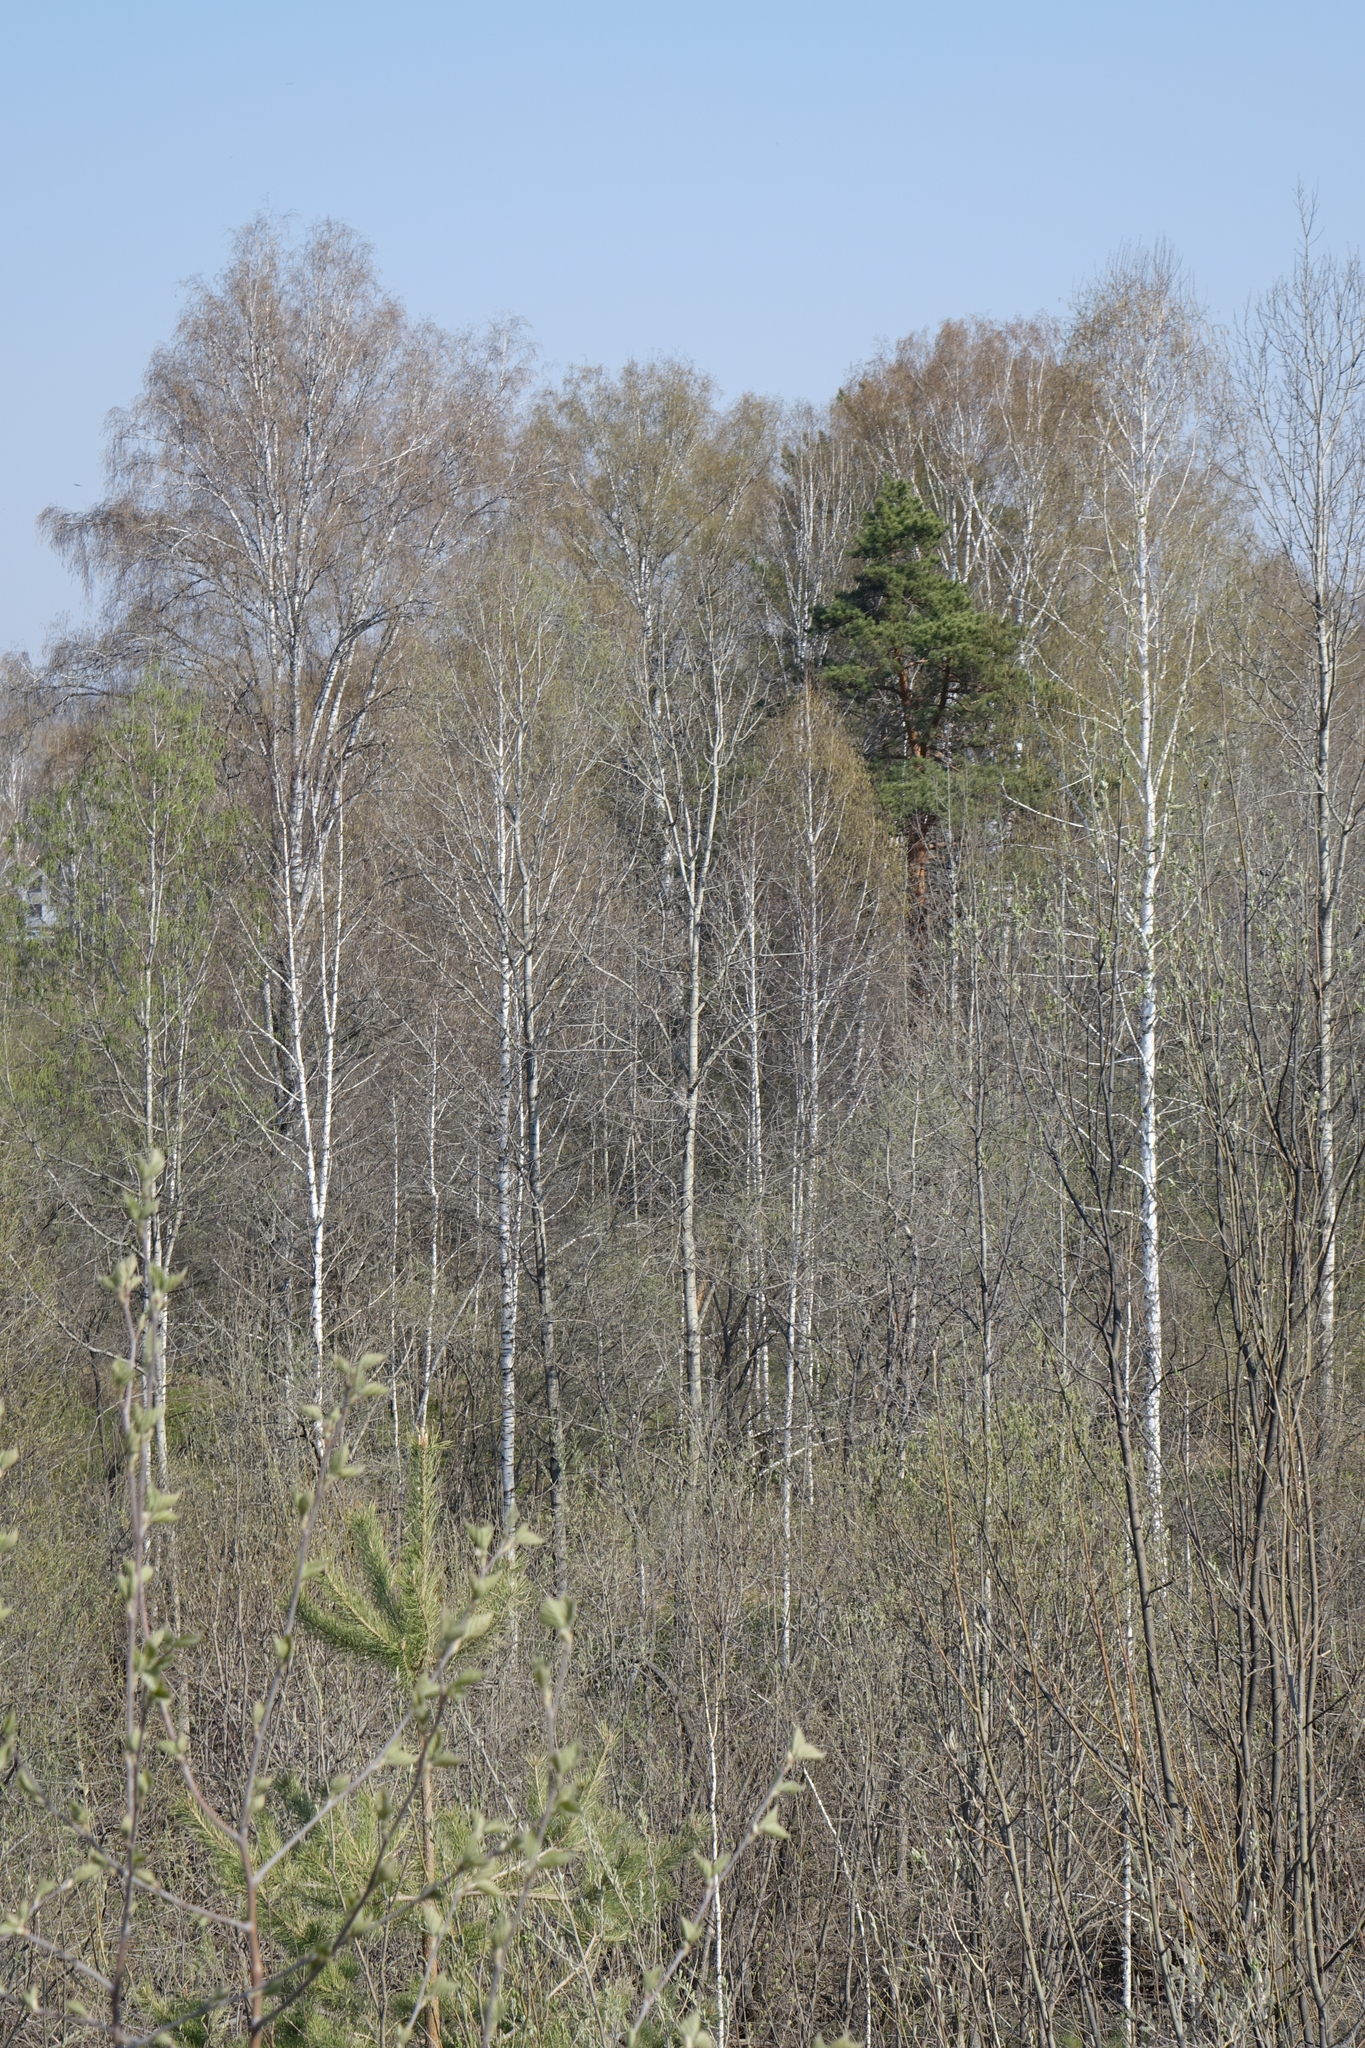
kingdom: Plantae
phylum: Tracheophyta
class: Pinopsida
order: Pinales
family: Pinaceae
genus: Pinus
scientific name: Pinus sylvestris
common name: Scots pine
